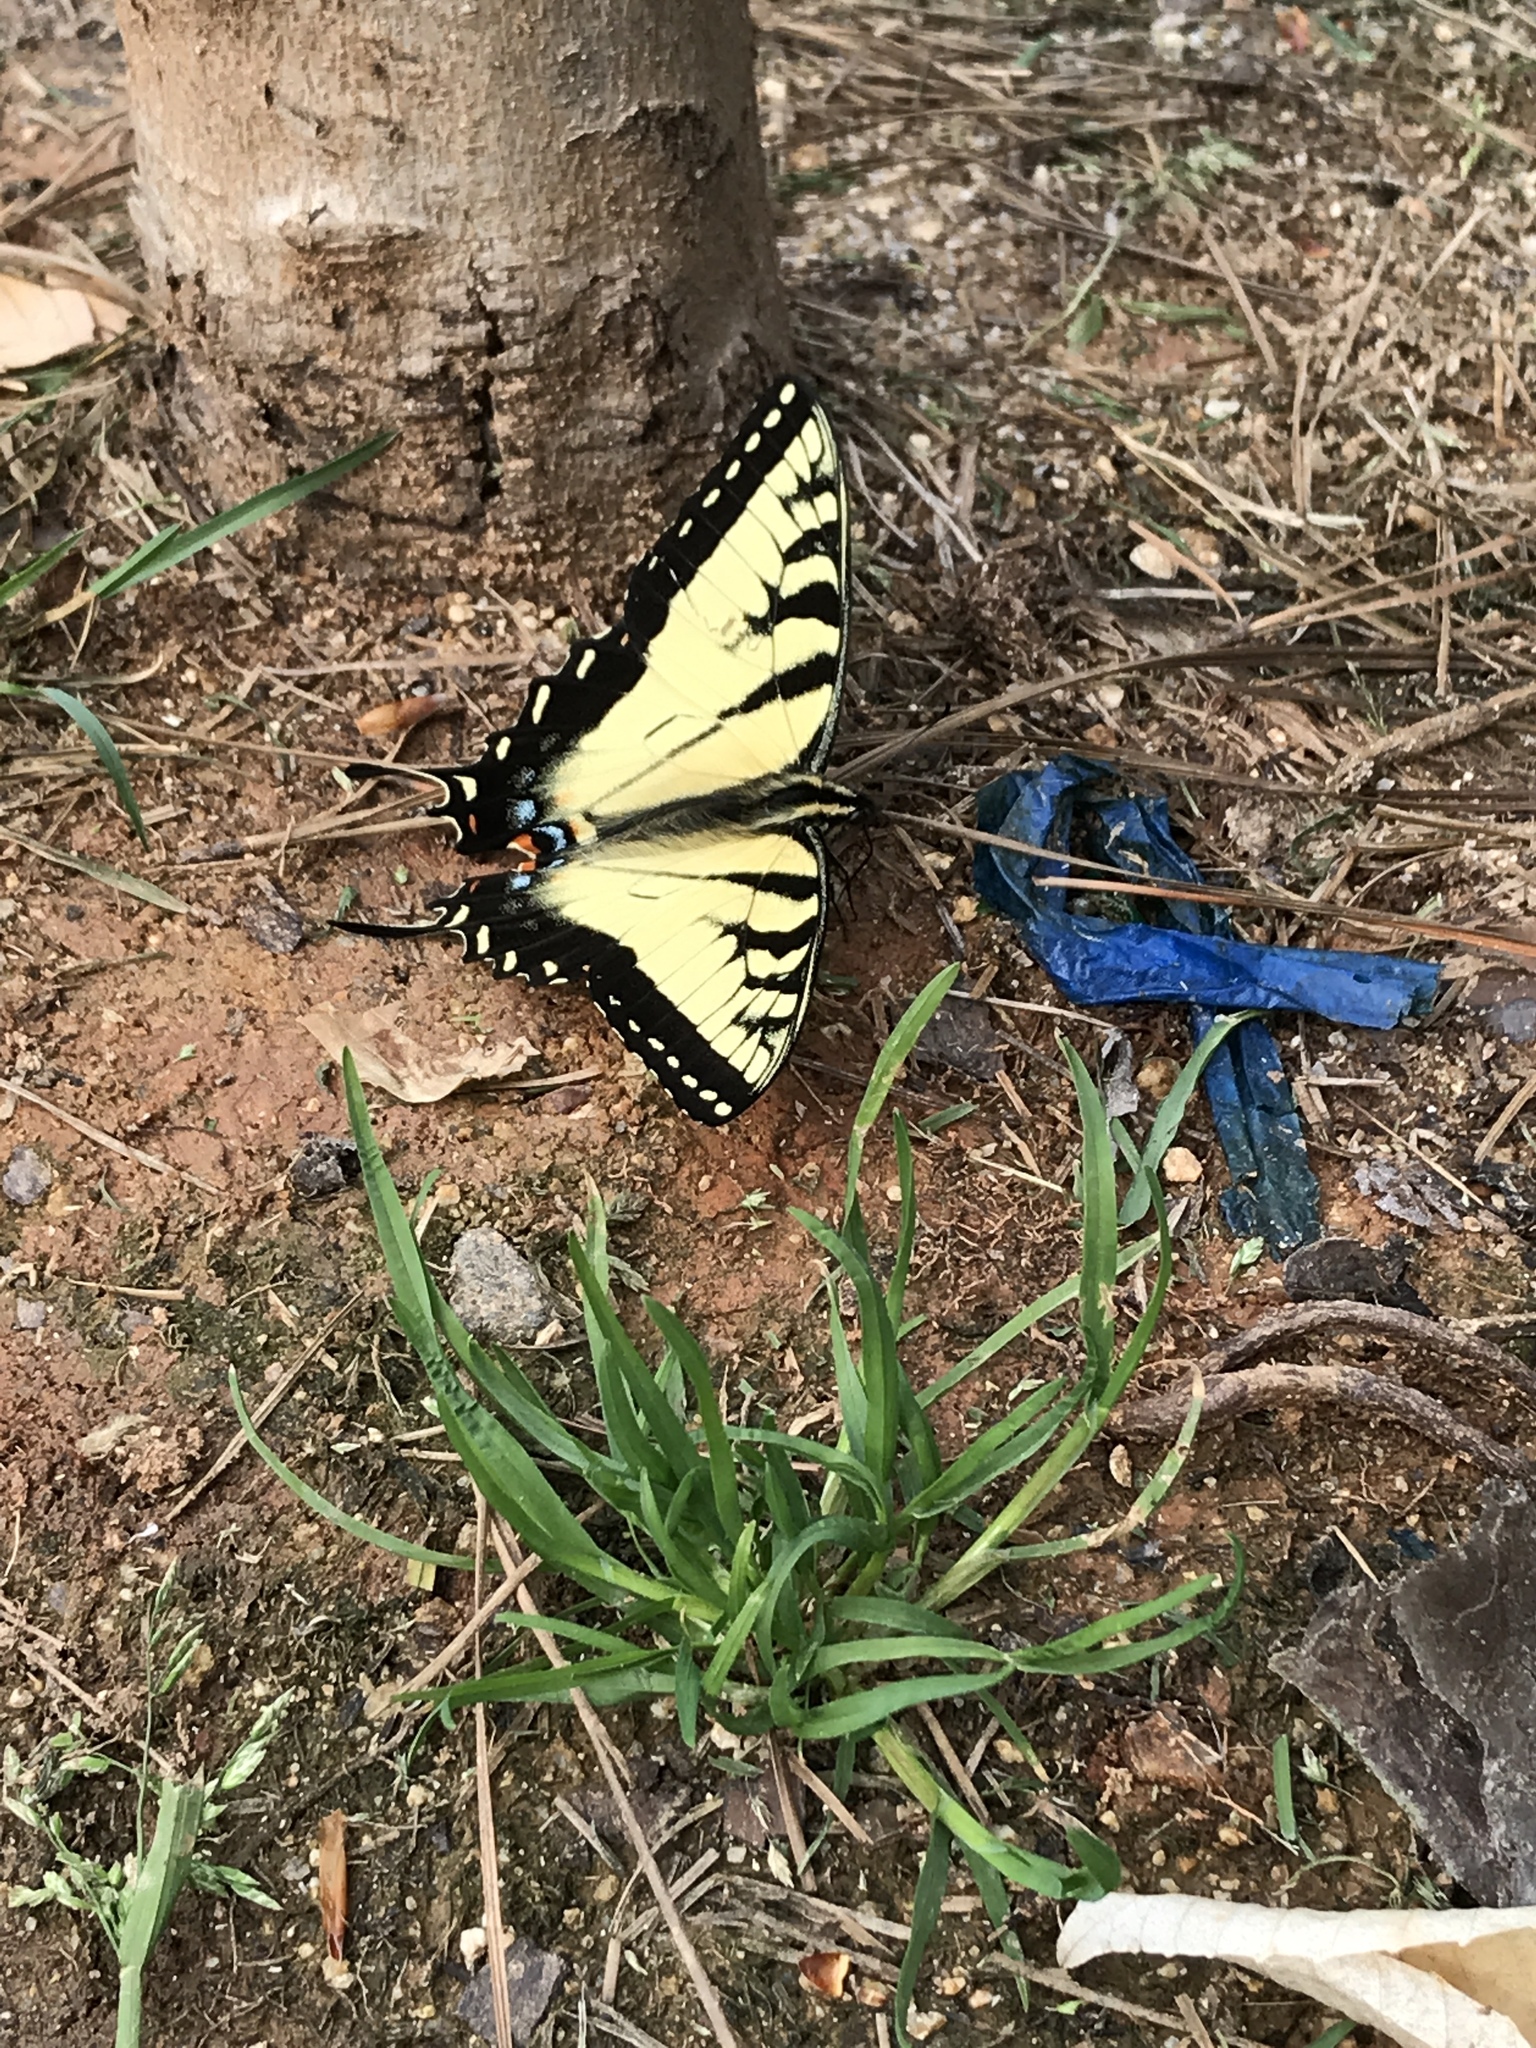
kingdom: Animalia
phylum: Arthropoda
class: Insecta
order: Lepidoptera
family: Papilionidae
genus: Papilio
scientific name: Papilio glaucus
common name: Tiger swallowtail
